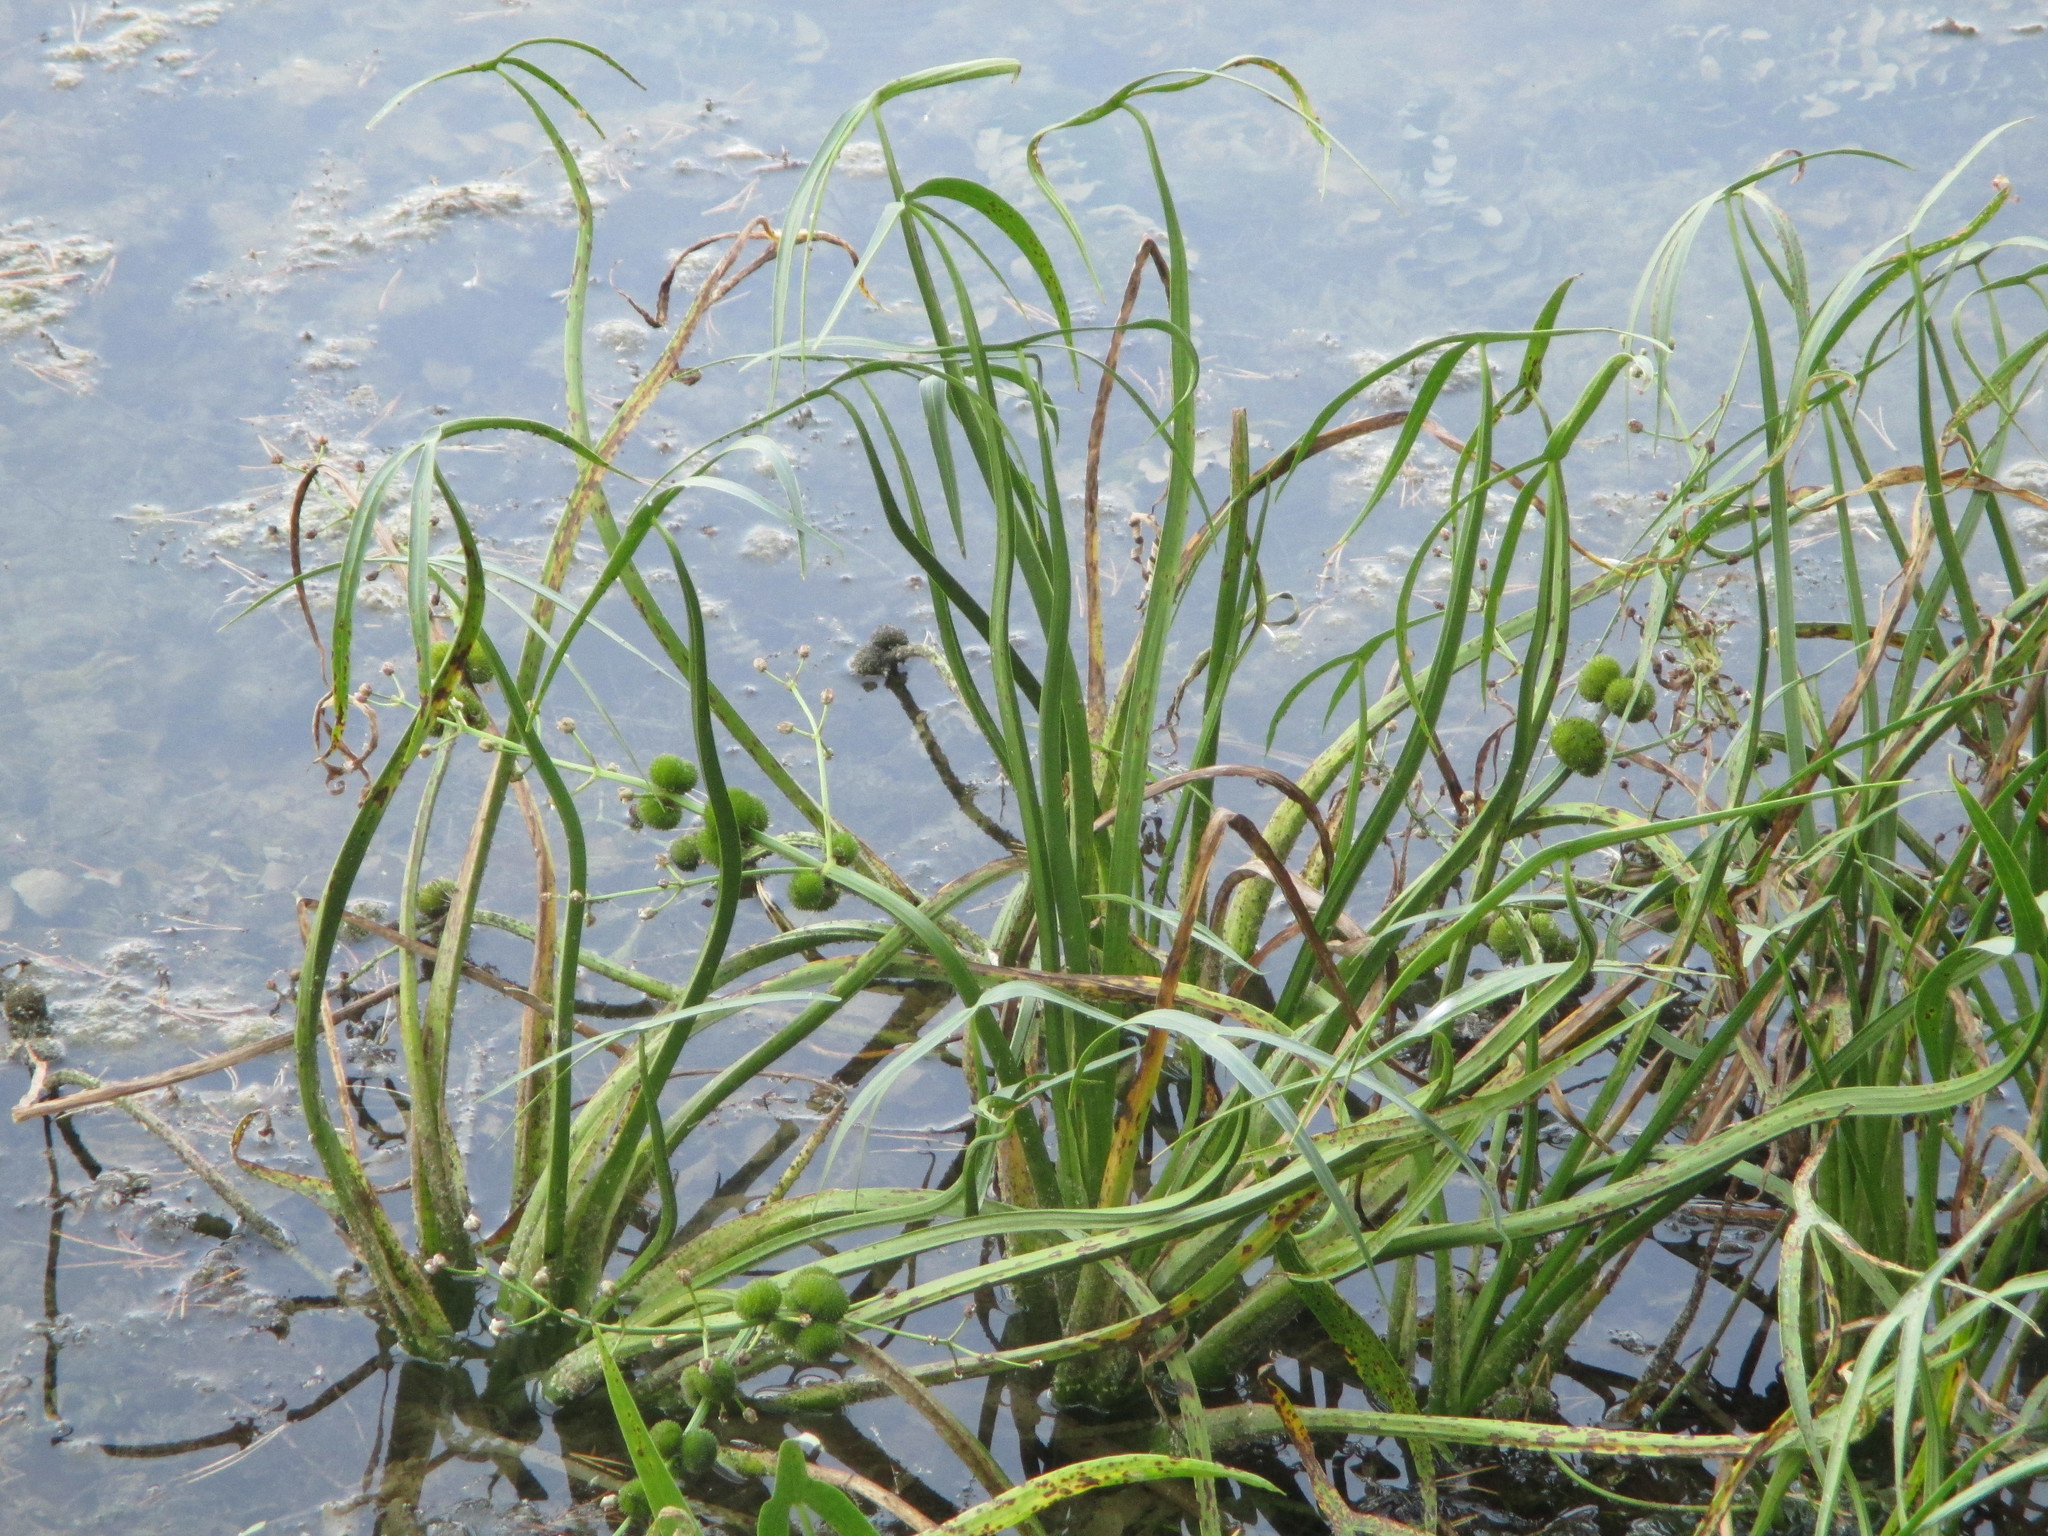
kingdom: Plantae
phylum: Tracheophyta
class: Liliopsida
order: Alismatales
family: Alismataceae
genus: Sagittaria
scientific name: Sagittaria sagittifolia
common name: Arrowhead
